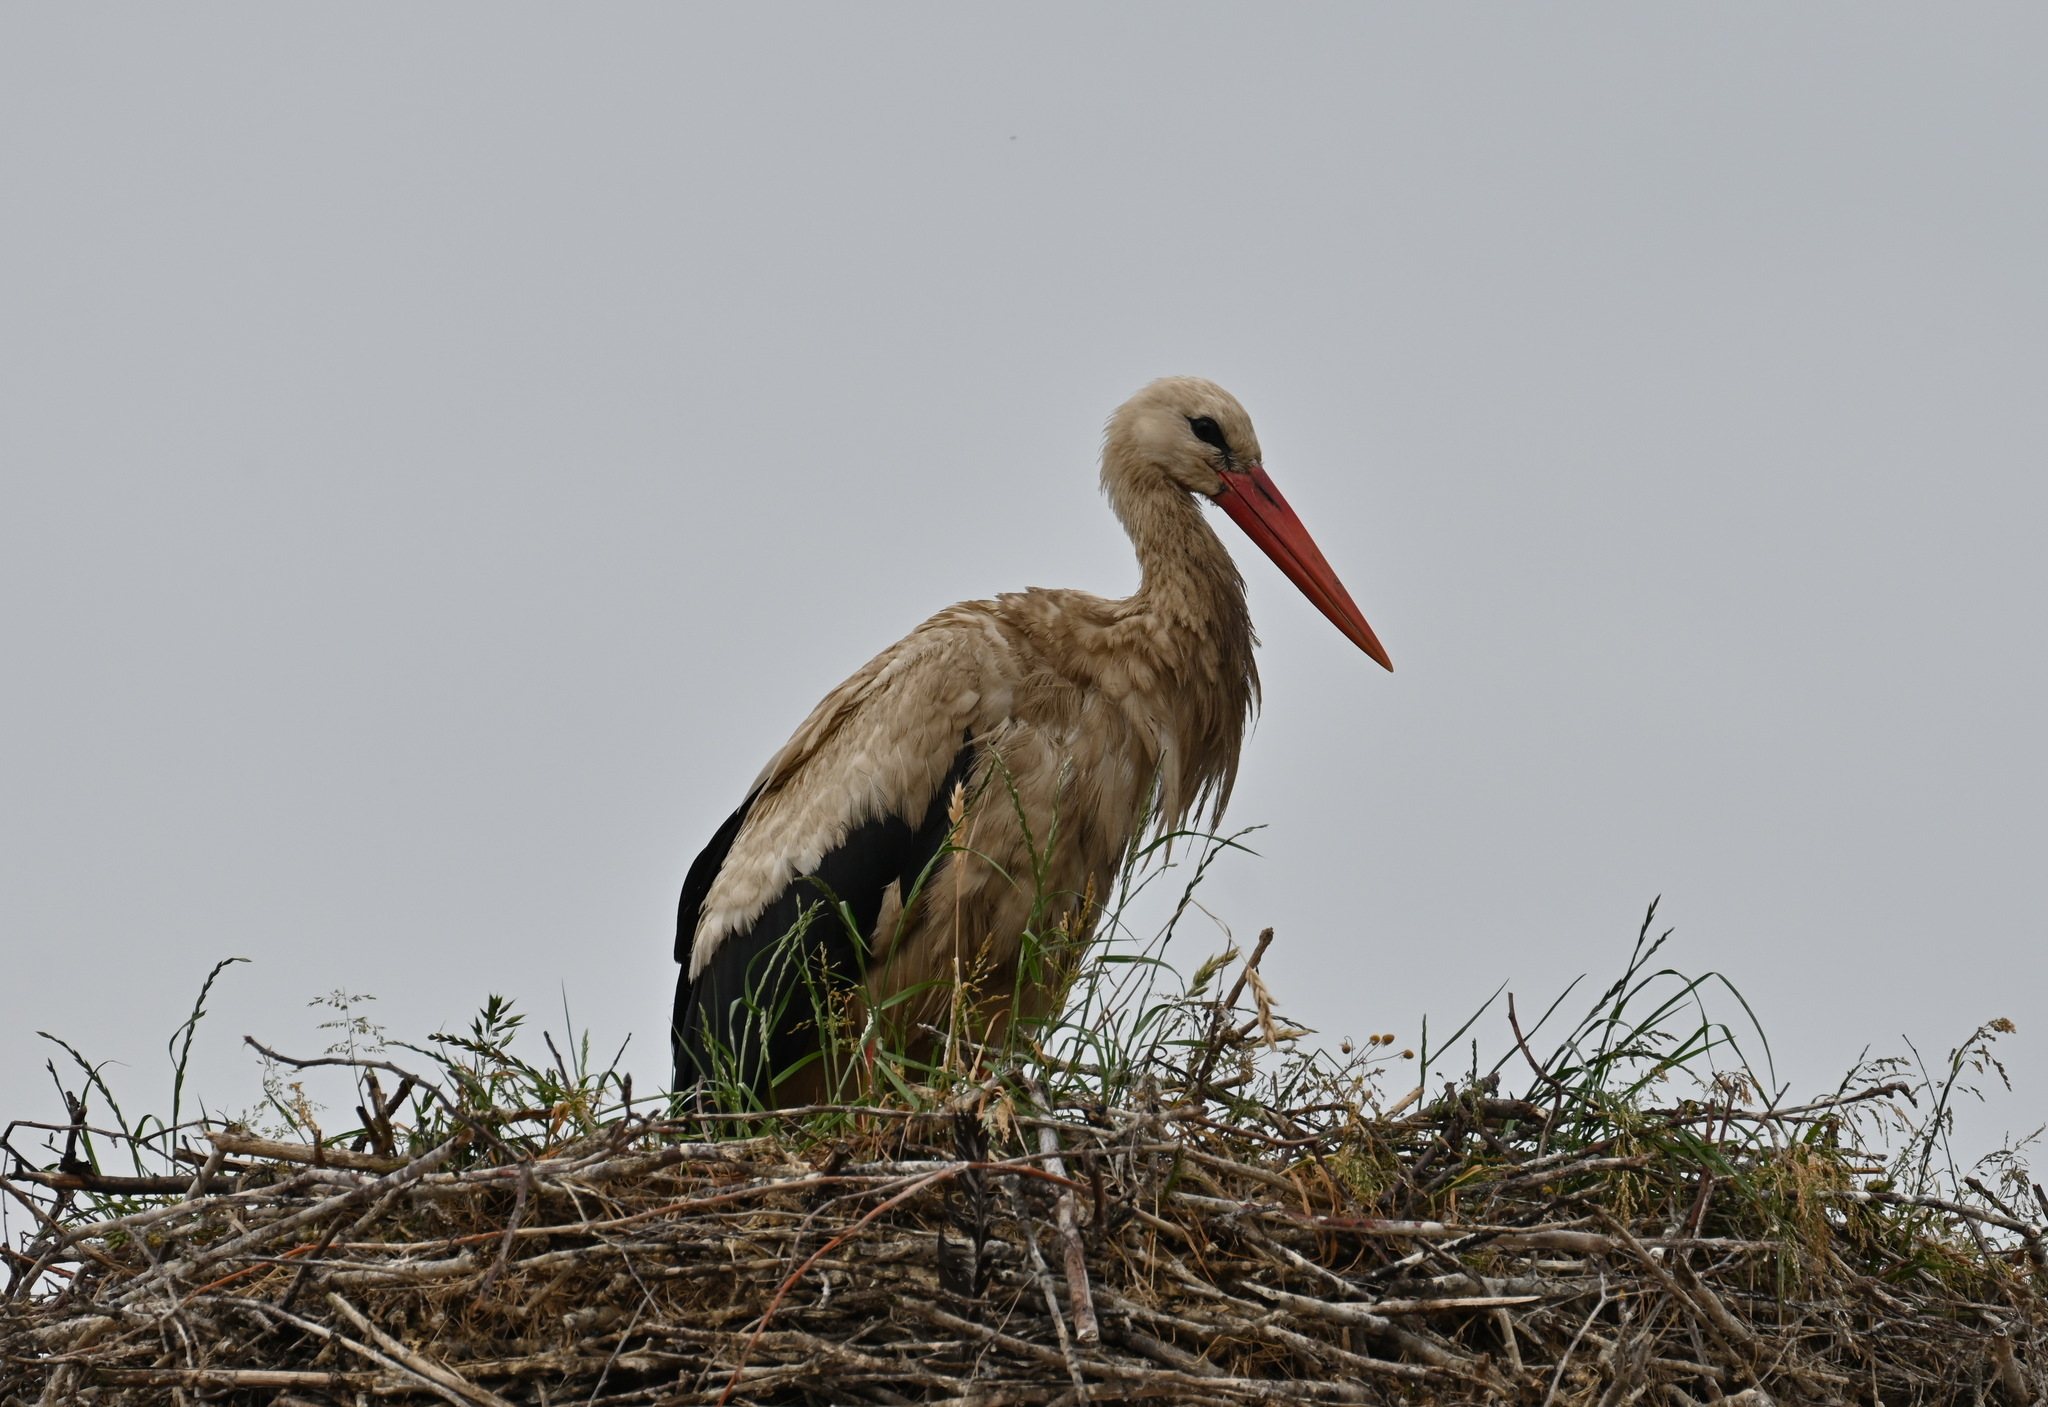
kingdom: Animalia
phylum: Chordata
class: Aves
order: Ciconiiformes
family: Ciconiidae
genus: Ciconia
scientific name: Ciconia ciconia
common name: White stork
